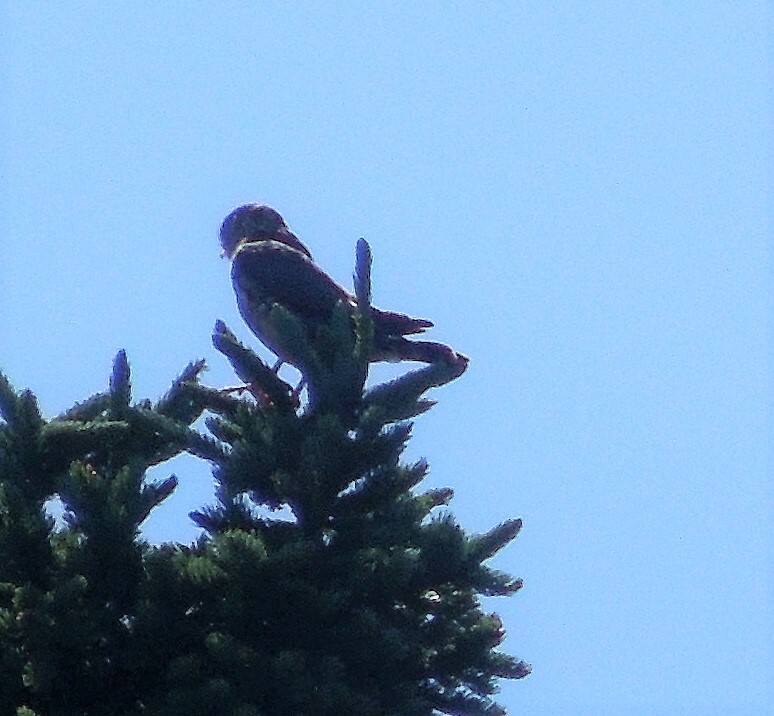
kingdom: Animalia
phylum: Chordata
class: Aves
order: Falconiformes
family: Falconidae
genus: Falco
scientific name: Falco columbarius
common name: Merlin
